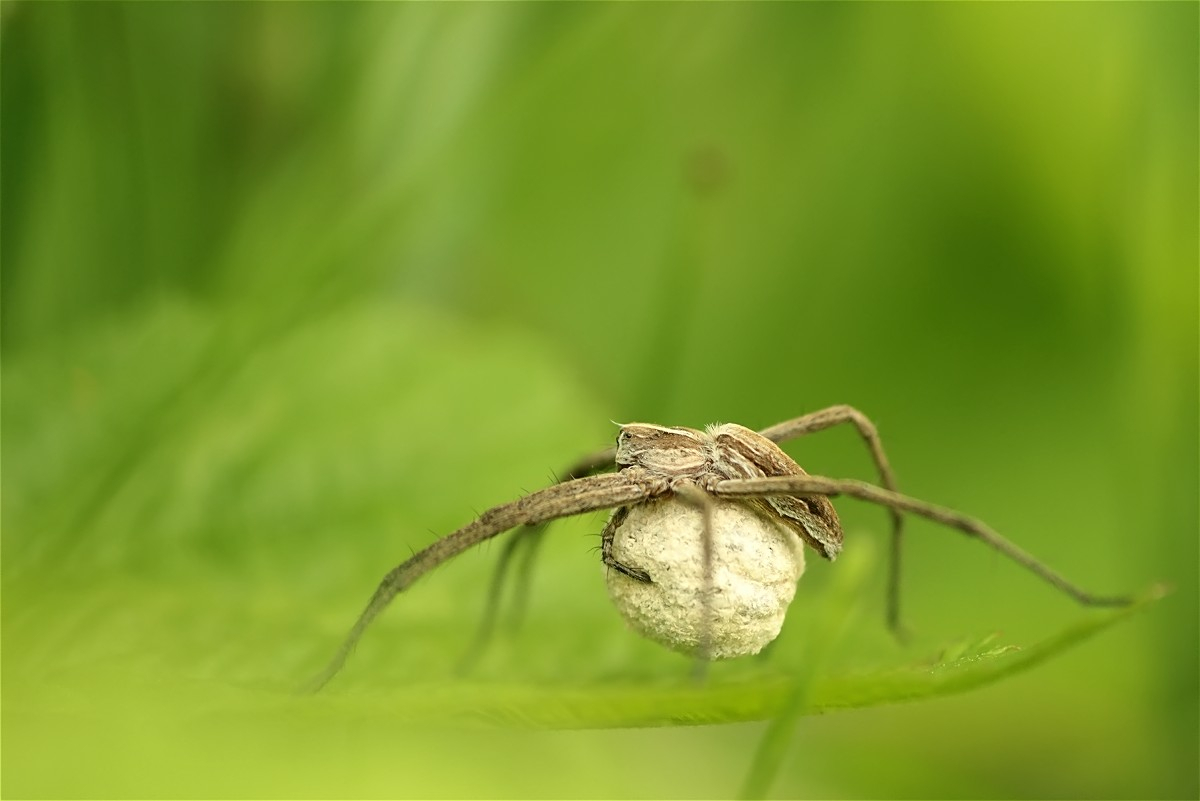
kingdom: Animalia
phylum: Arthropoda
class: Arachnida
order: Araneae
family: Pisauridae
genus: Pisaura
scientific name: Pisaura mirabilis
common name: Tent spider
